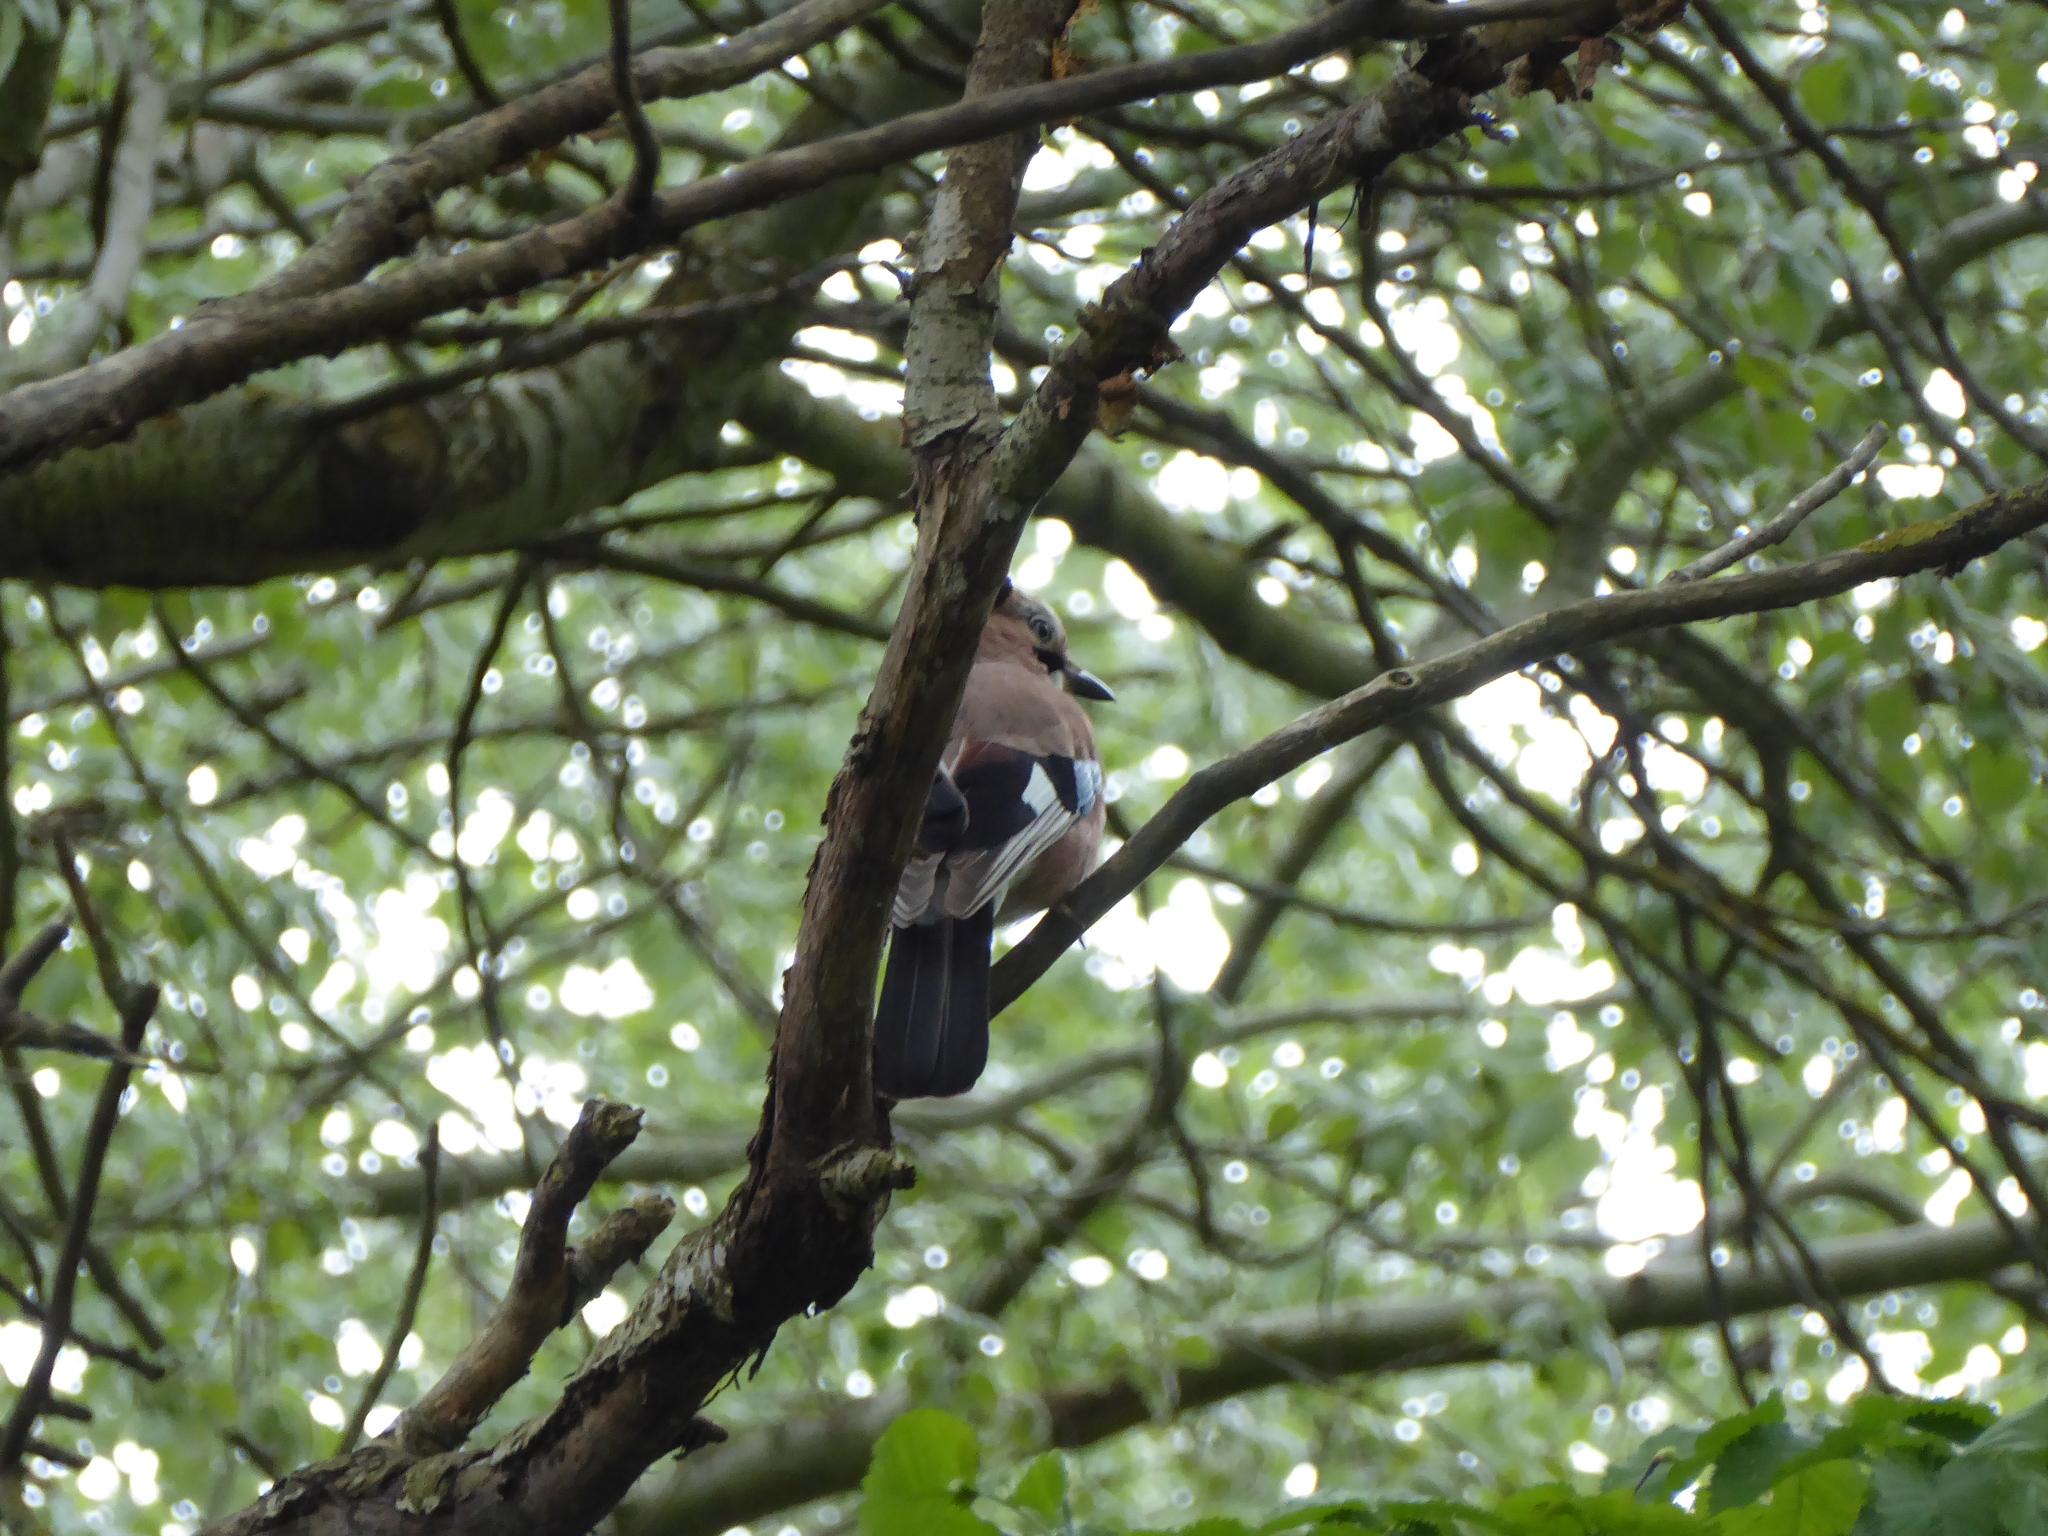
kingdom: Animalia
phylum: Chordata
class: Aves
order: Passeriformes
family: Corvidae
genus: Garrulus
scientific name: Garrulus glandarius
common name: Eurasian jay
